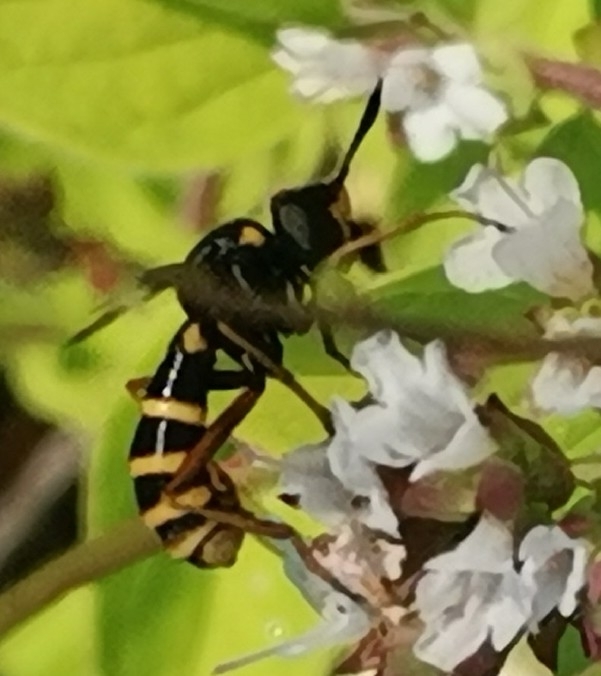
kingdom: Animalia
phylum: Arthropoda
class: Insecta
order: Diptera
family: Conopidae
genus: Conops
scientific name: Conops quadrifasciatus
